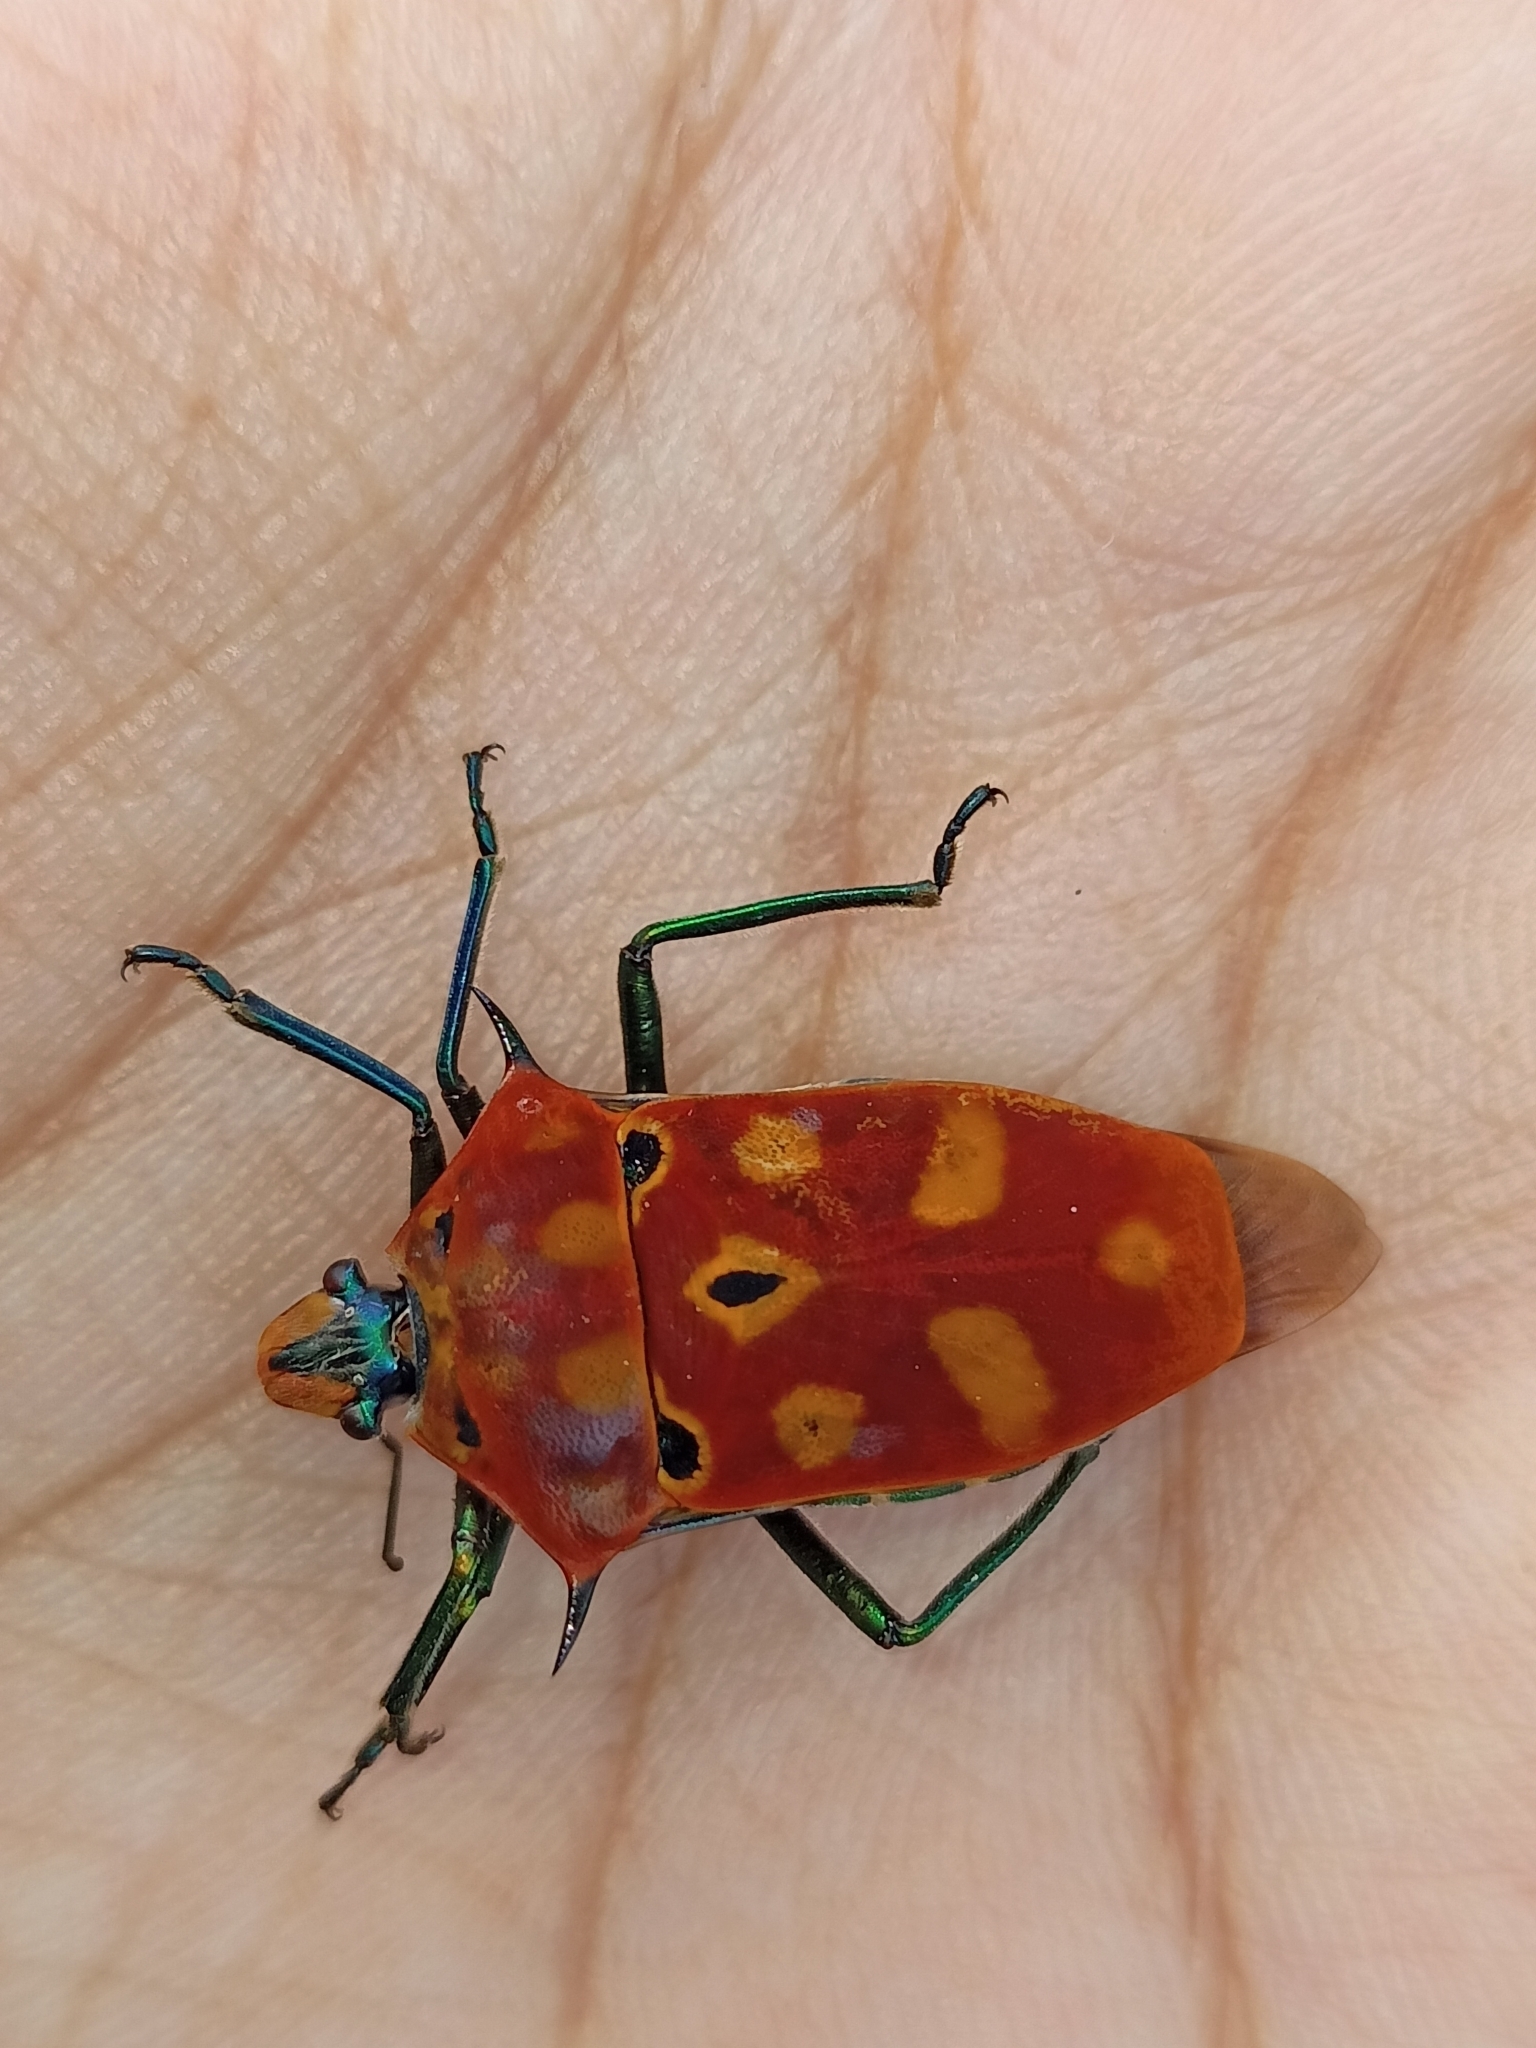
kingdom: Animalia
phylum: Arthropoda
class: Insecta
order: Hemiptera
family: Scutelleridae
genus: Cantao
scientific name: Cantao ocellatus
